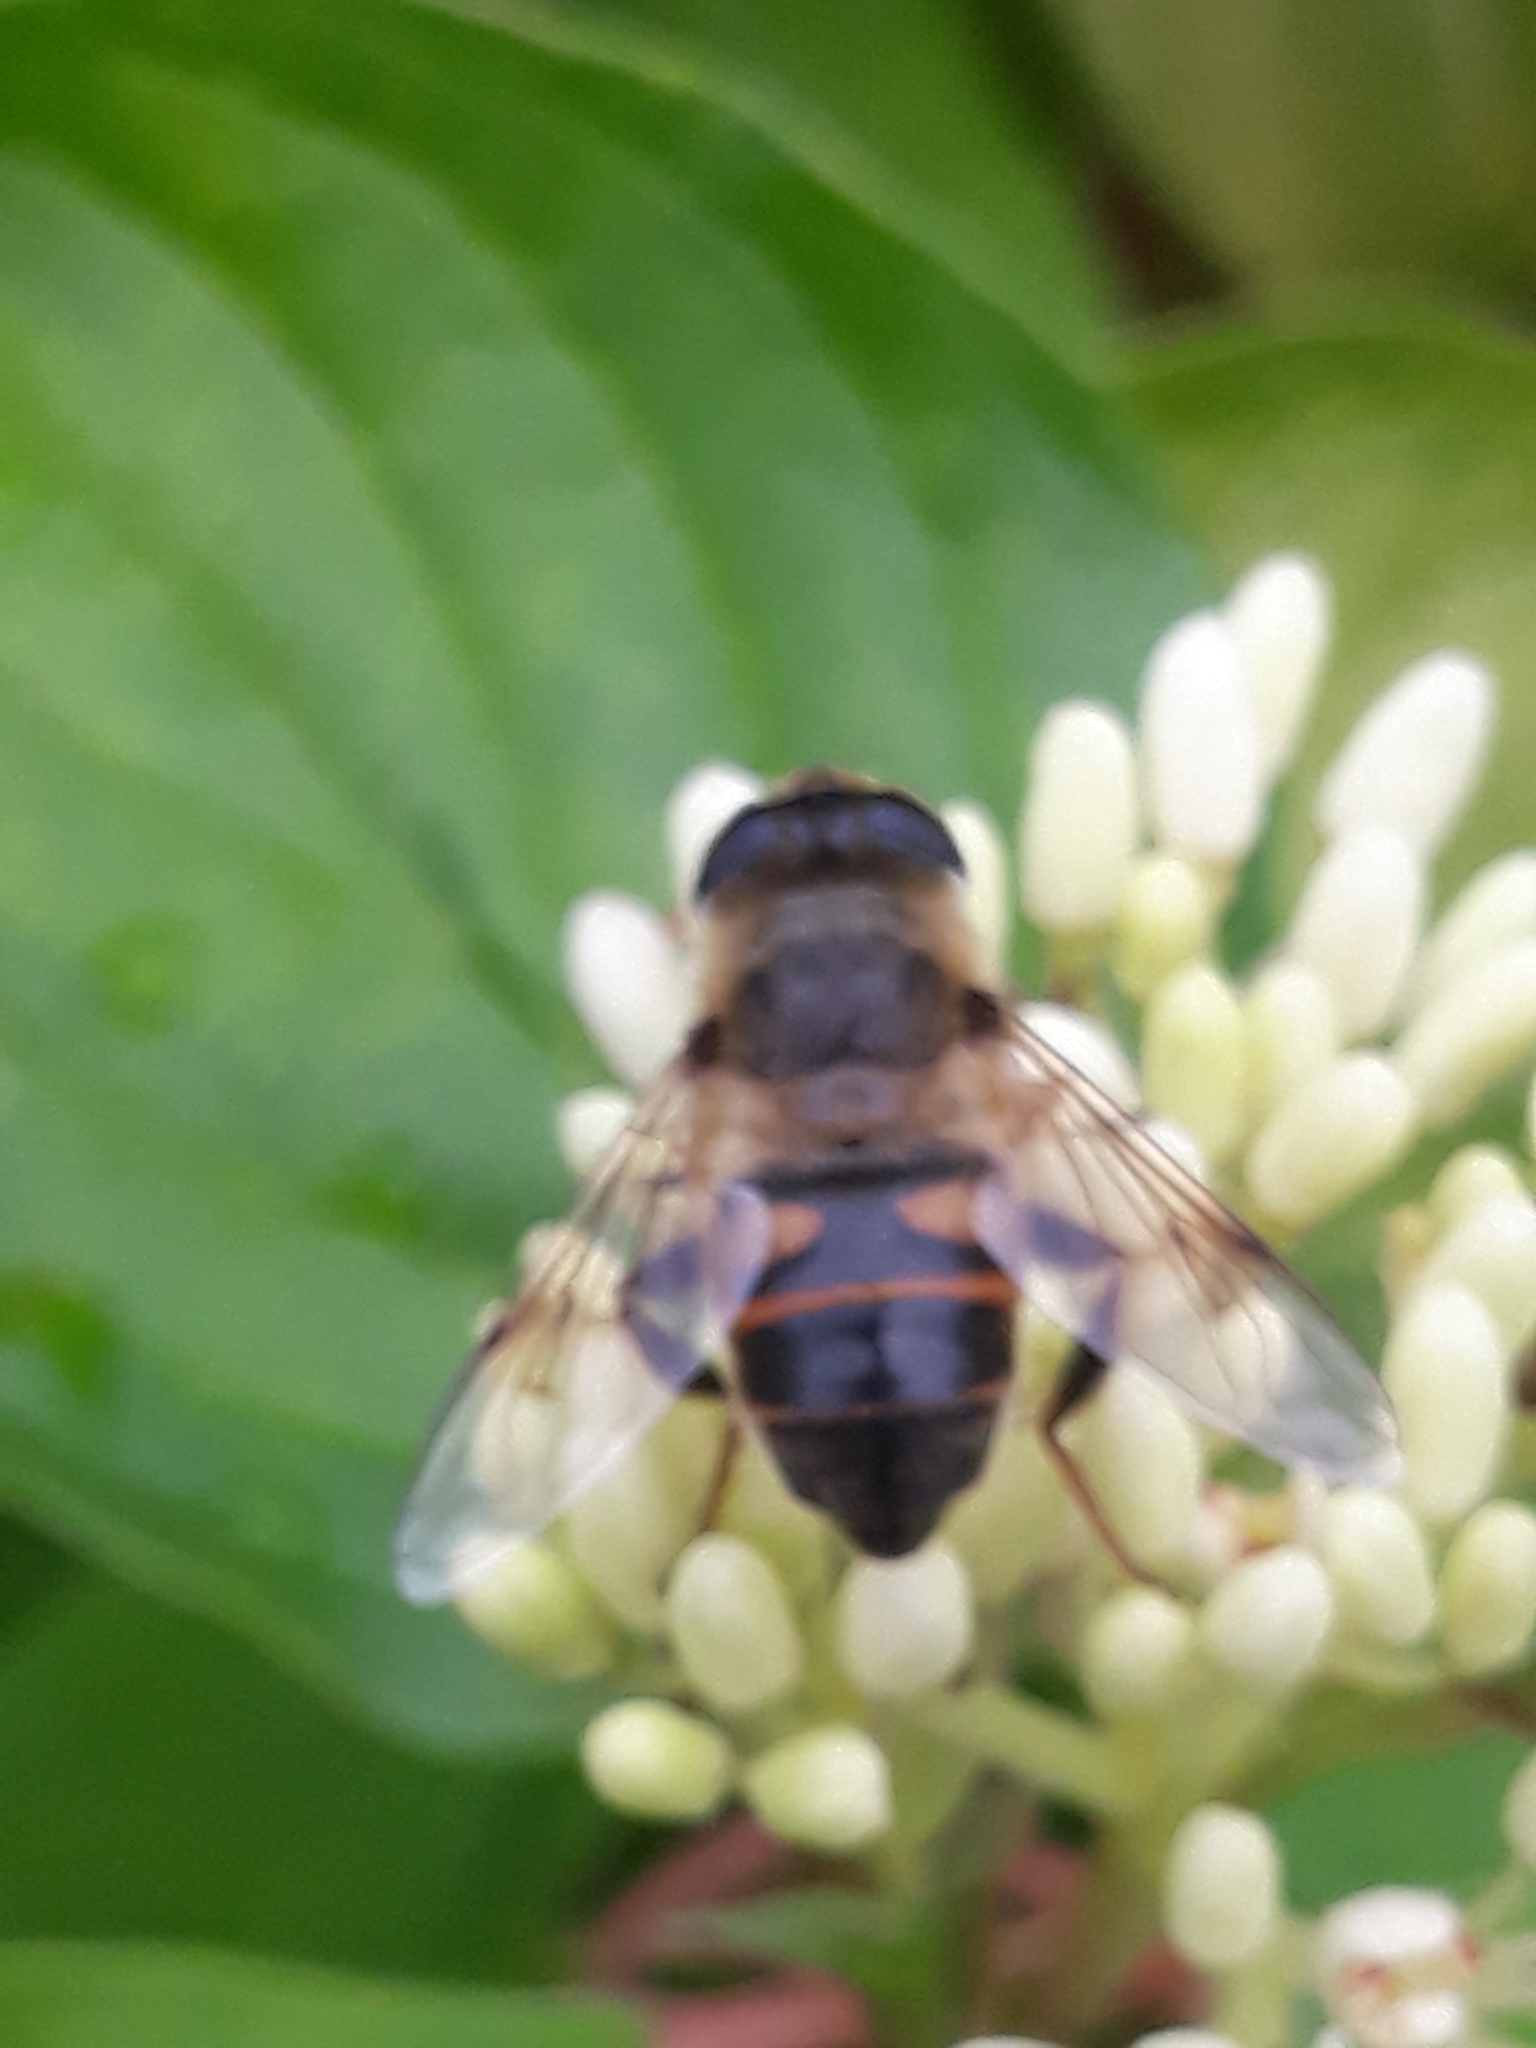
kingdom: Animalia
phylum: Arthropoda
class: Insecta
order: Diptera
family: Syrphidae
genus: Eristalis
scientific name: Eristalis tenax
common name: Drone fly
